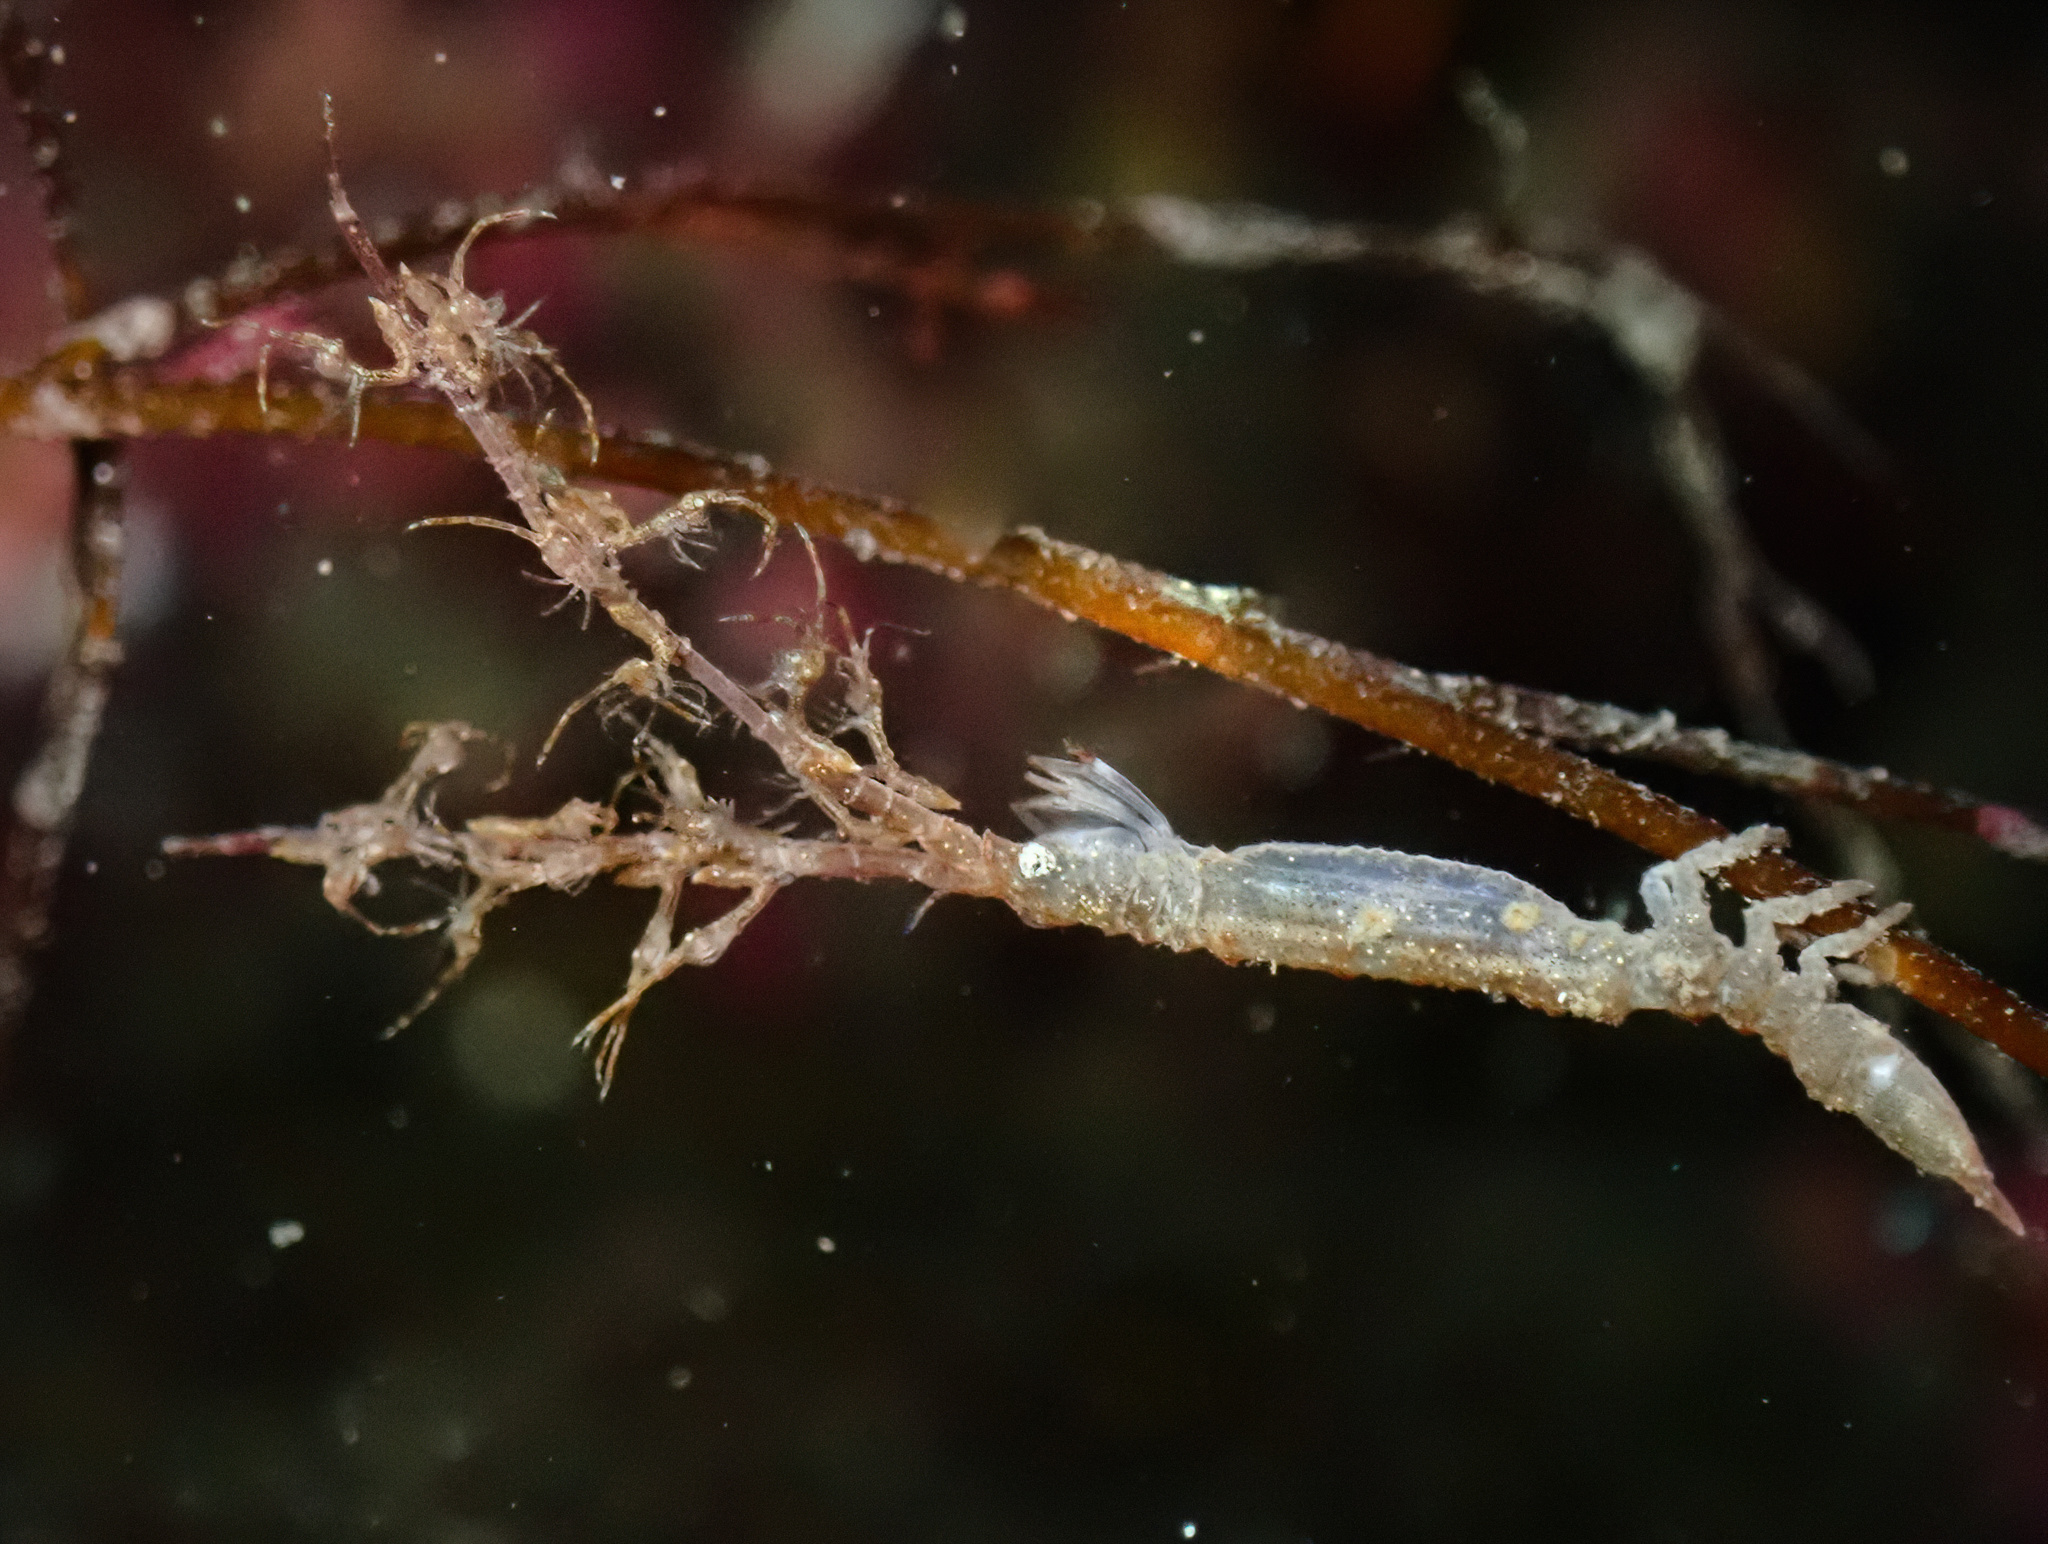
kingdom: Animalia
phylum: Arthropoda
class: Malacostraca
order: Isopoda
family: Arcturidae
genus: Astacilla
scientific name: Astacilla longicornis
